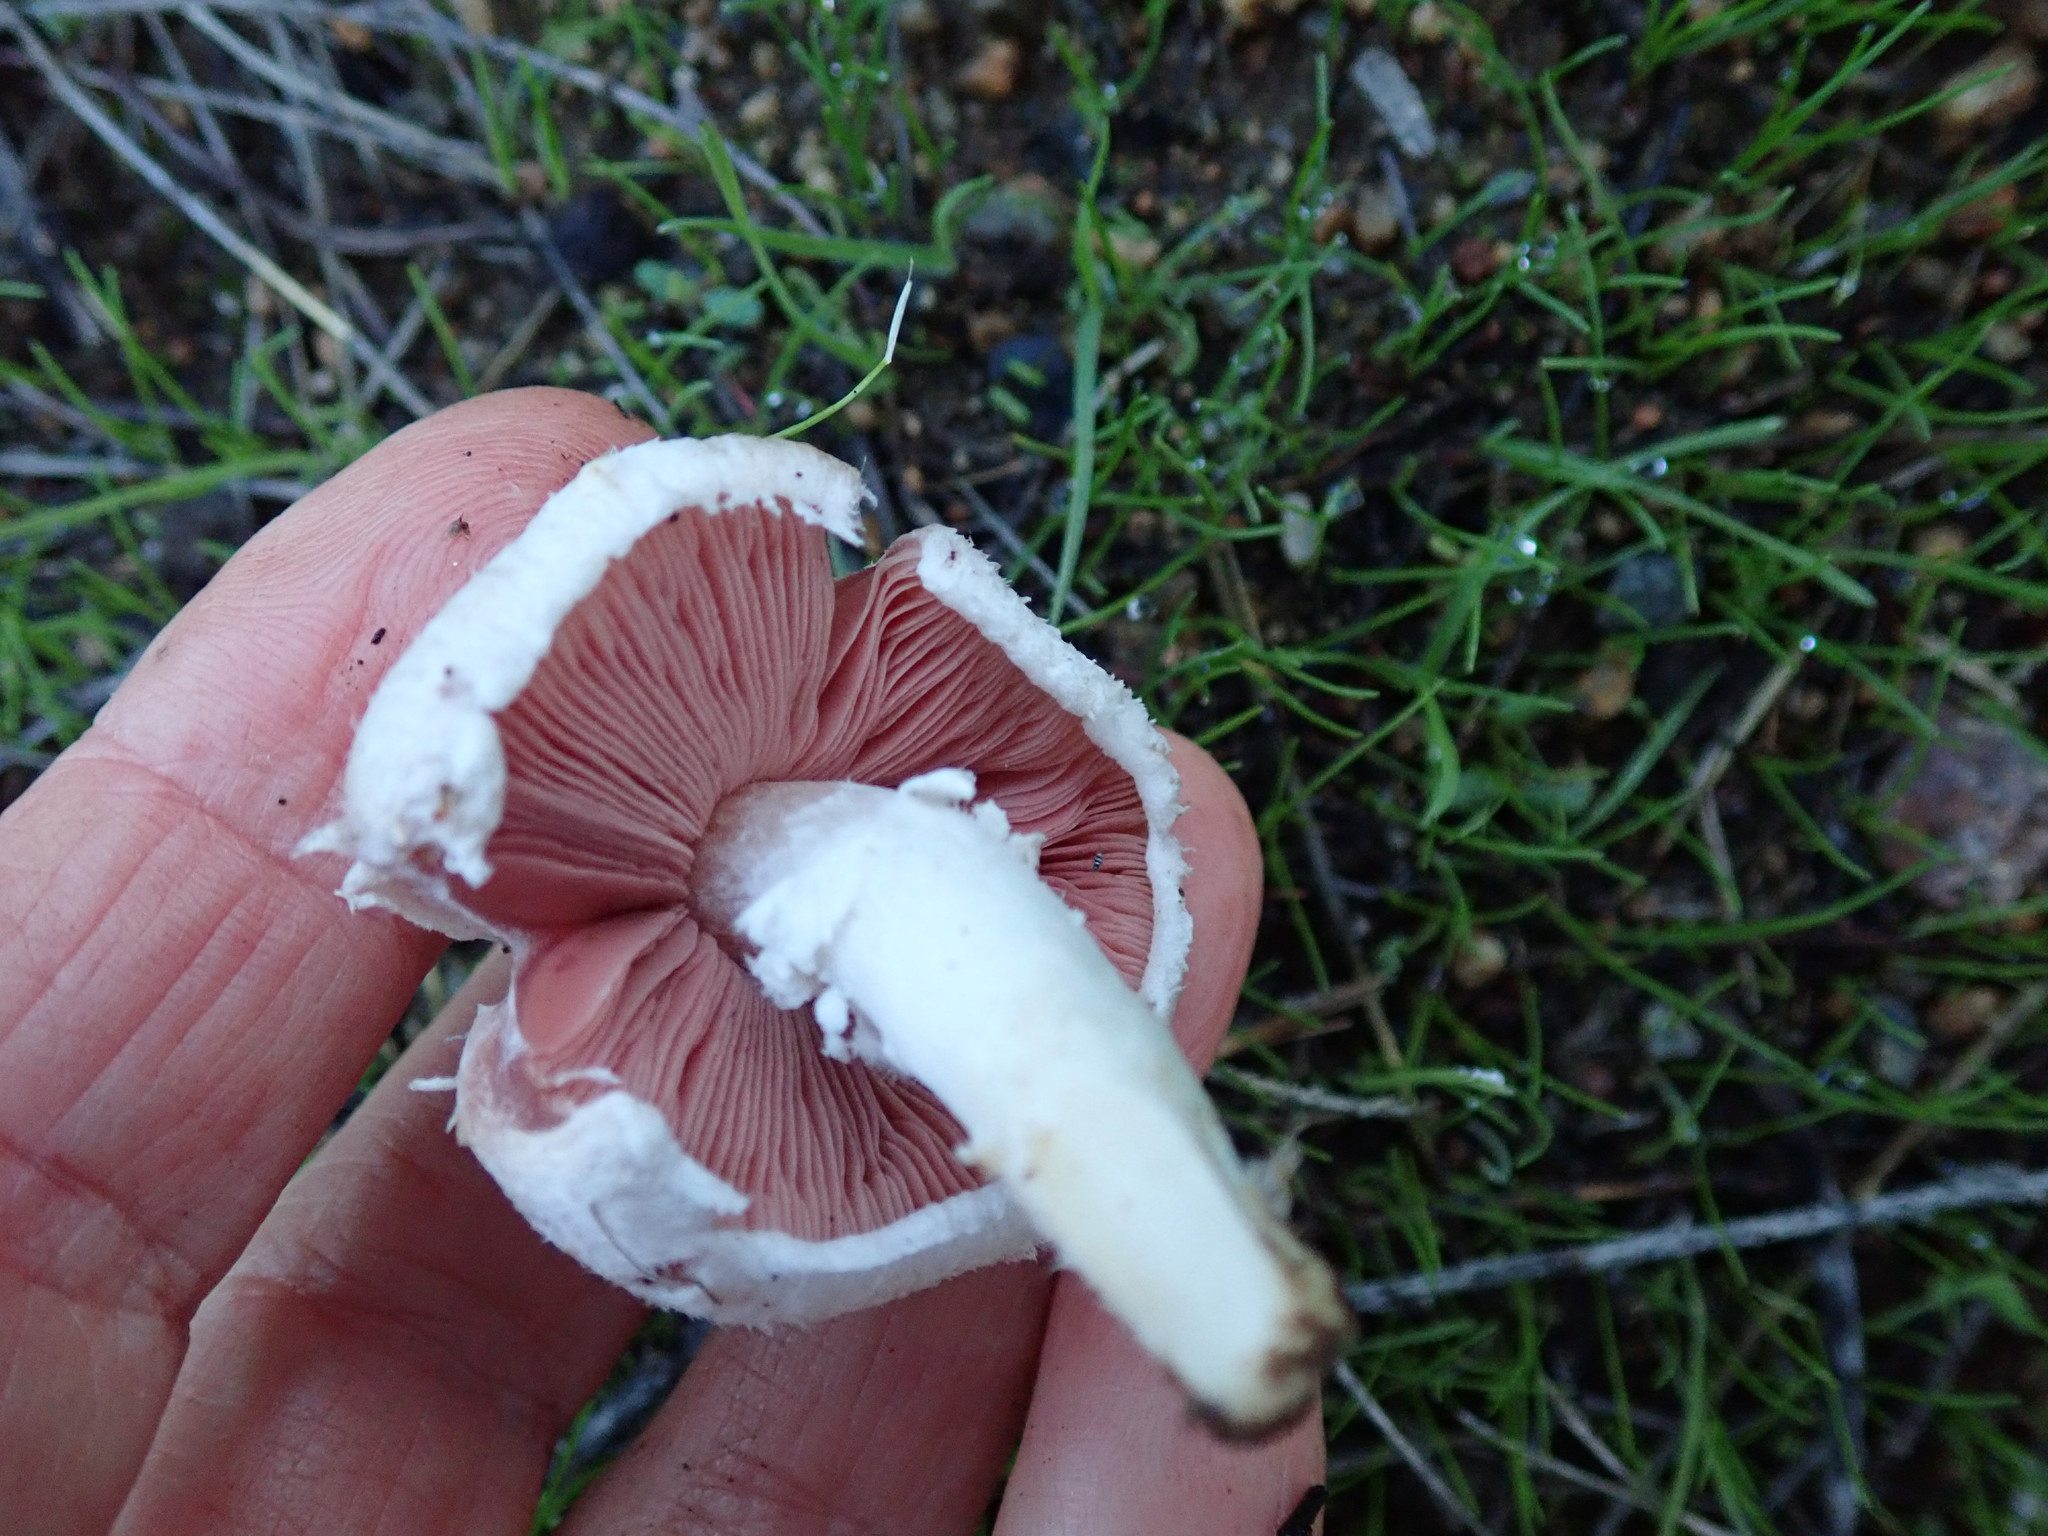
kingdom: Fungi
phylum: Basidiomycota
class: Agaricomycetes
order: Agaricales
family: Agaricaceae
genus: Agaricus
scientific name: Agaricus campestris
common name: Field mushroom
